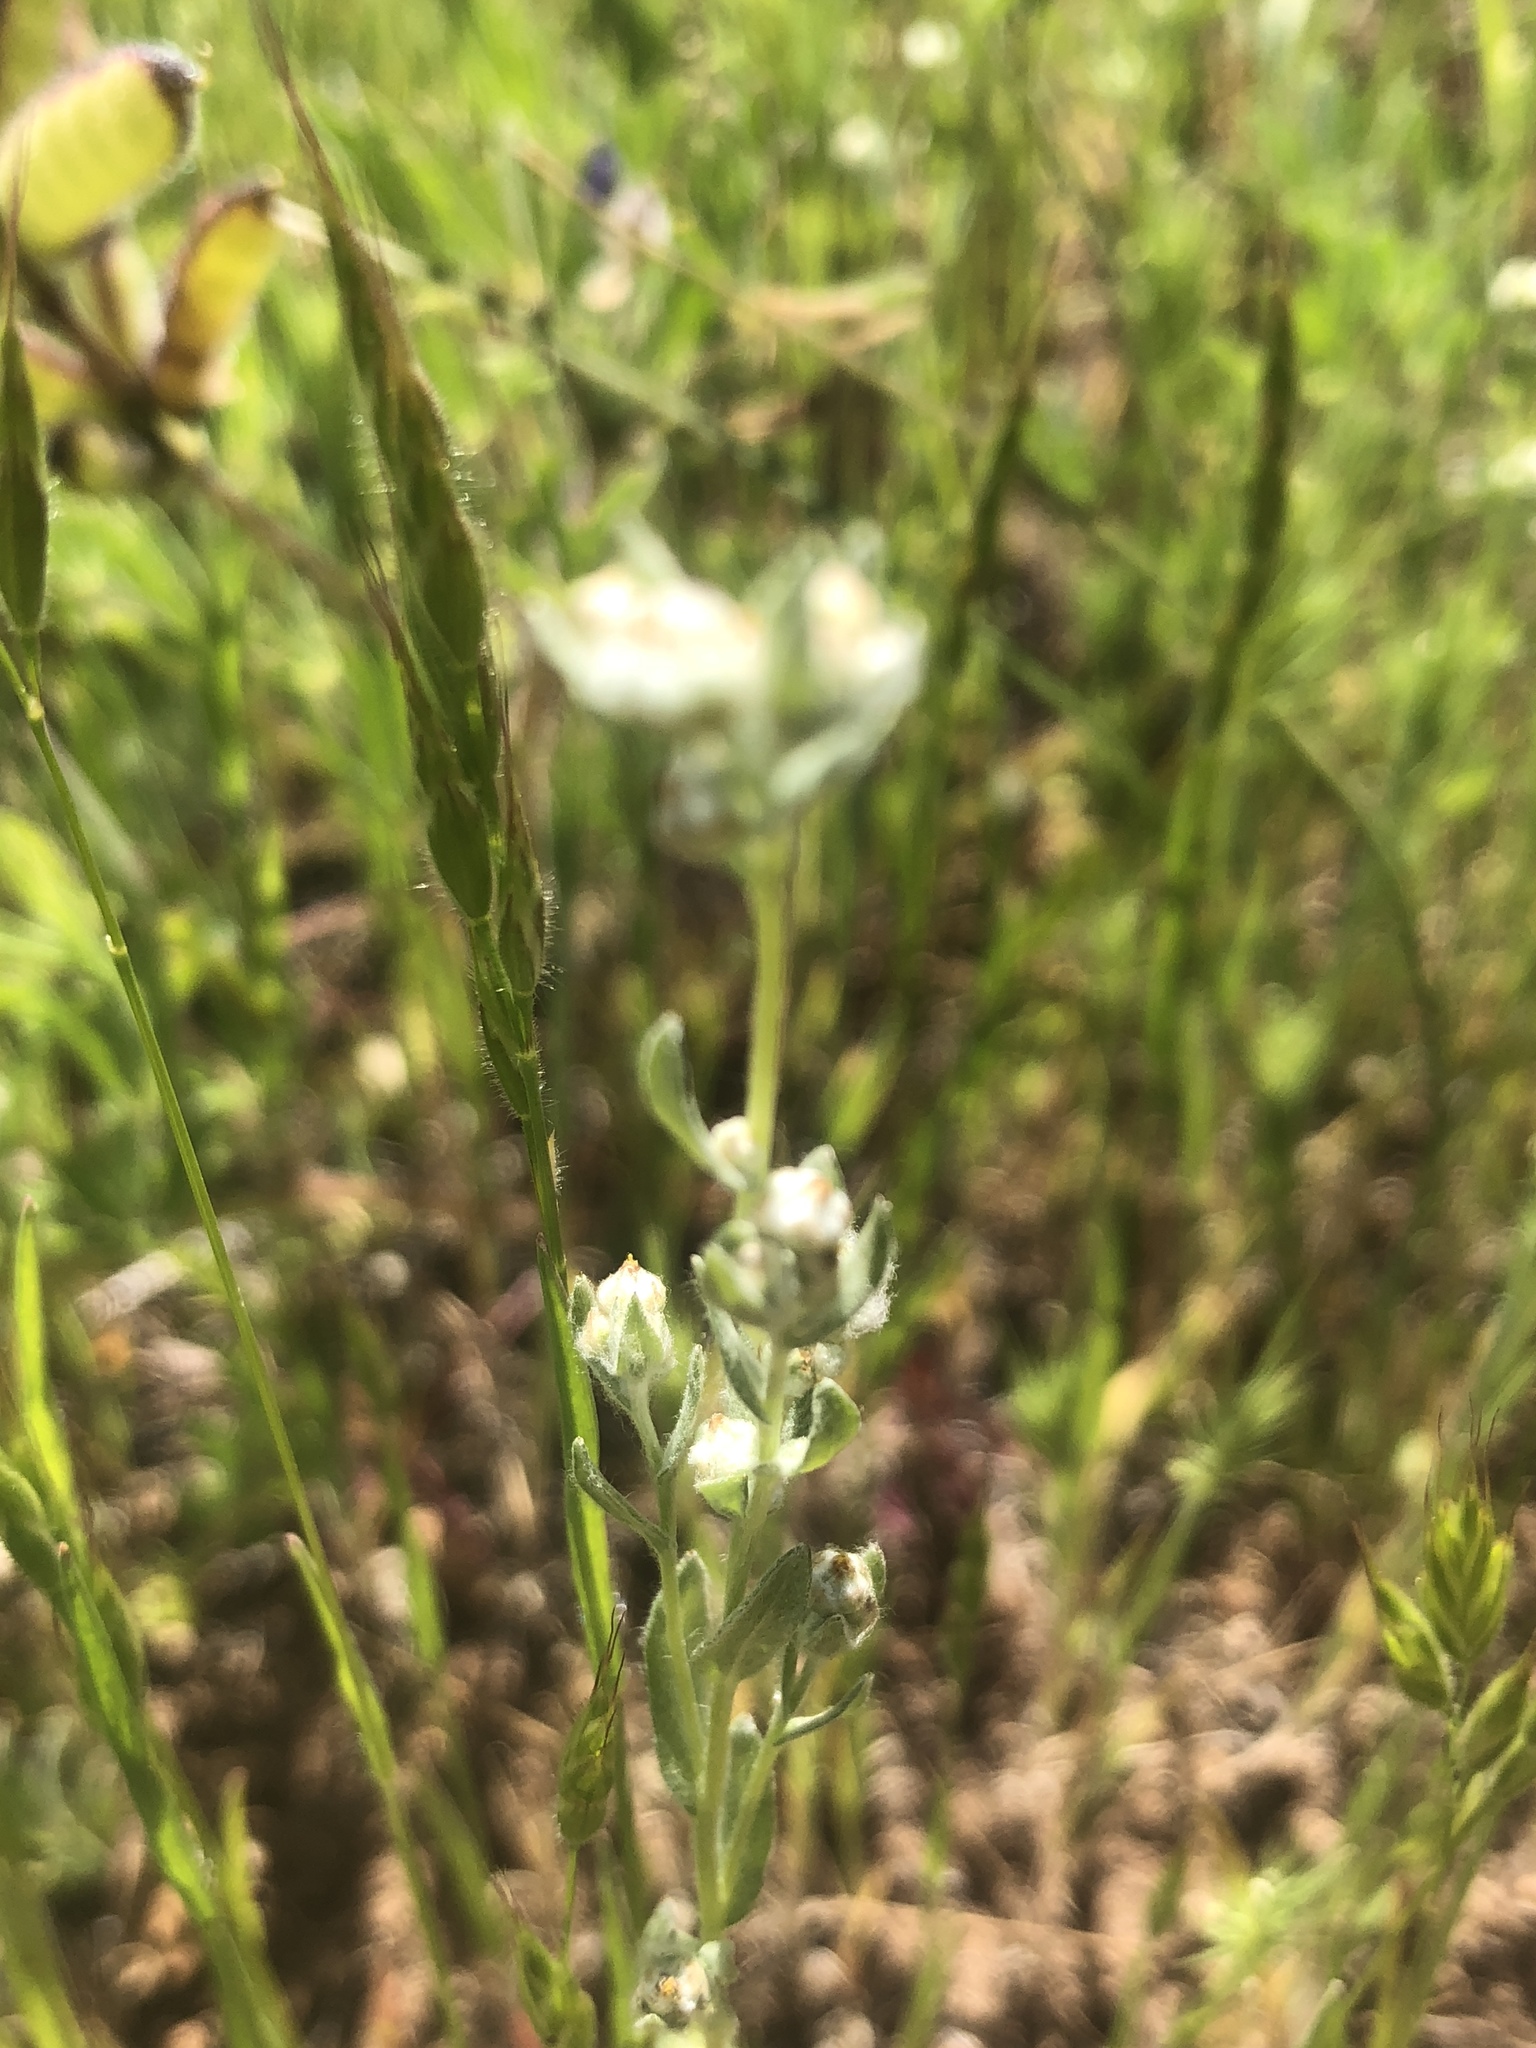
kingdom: Plantae
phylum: Tracheophyta
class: Magnoliopsida
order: Asterales
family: Asteraceae
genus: Bombycilaena
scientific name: Bombycilaena californica
